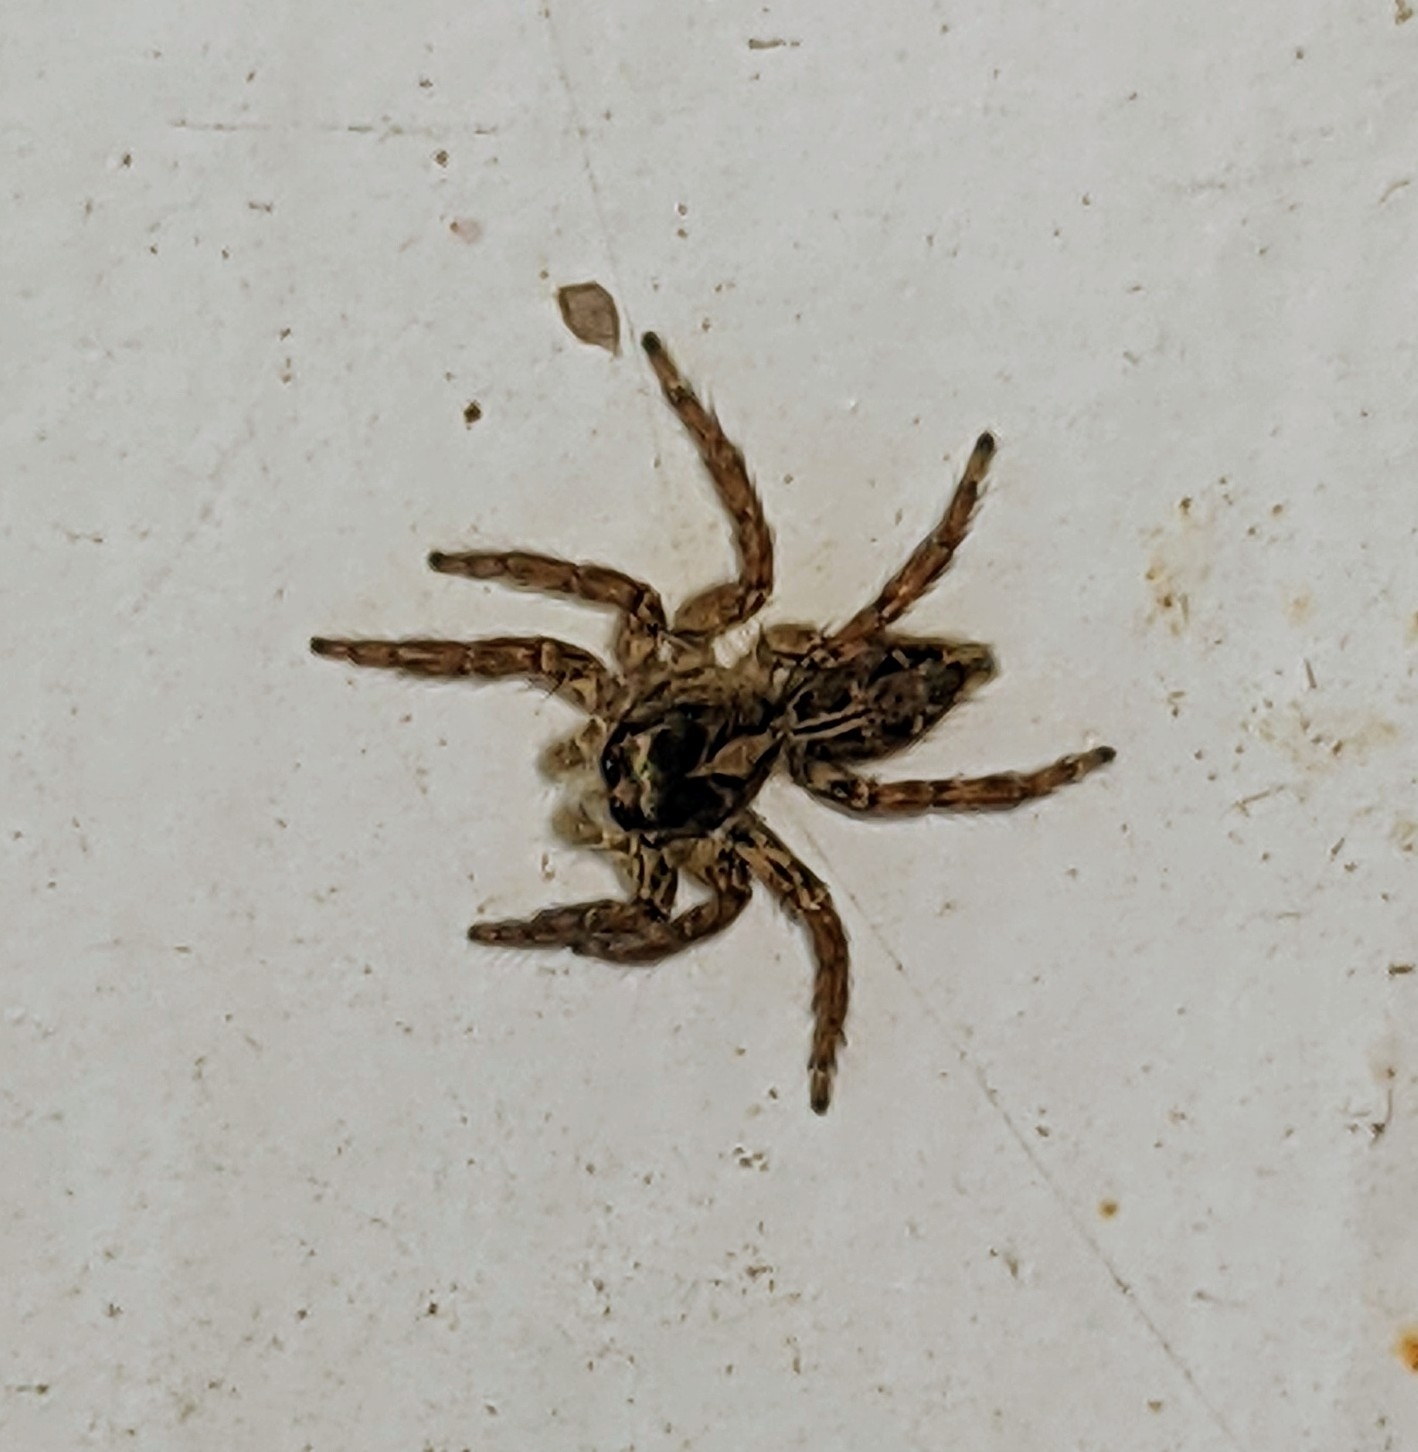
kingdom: Animalia
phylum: Arthropoda
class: Arachnida
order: Araneae
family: Salticidae
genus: Plexippus
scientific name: Plexippus paykulli
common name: Pantropical jumper
